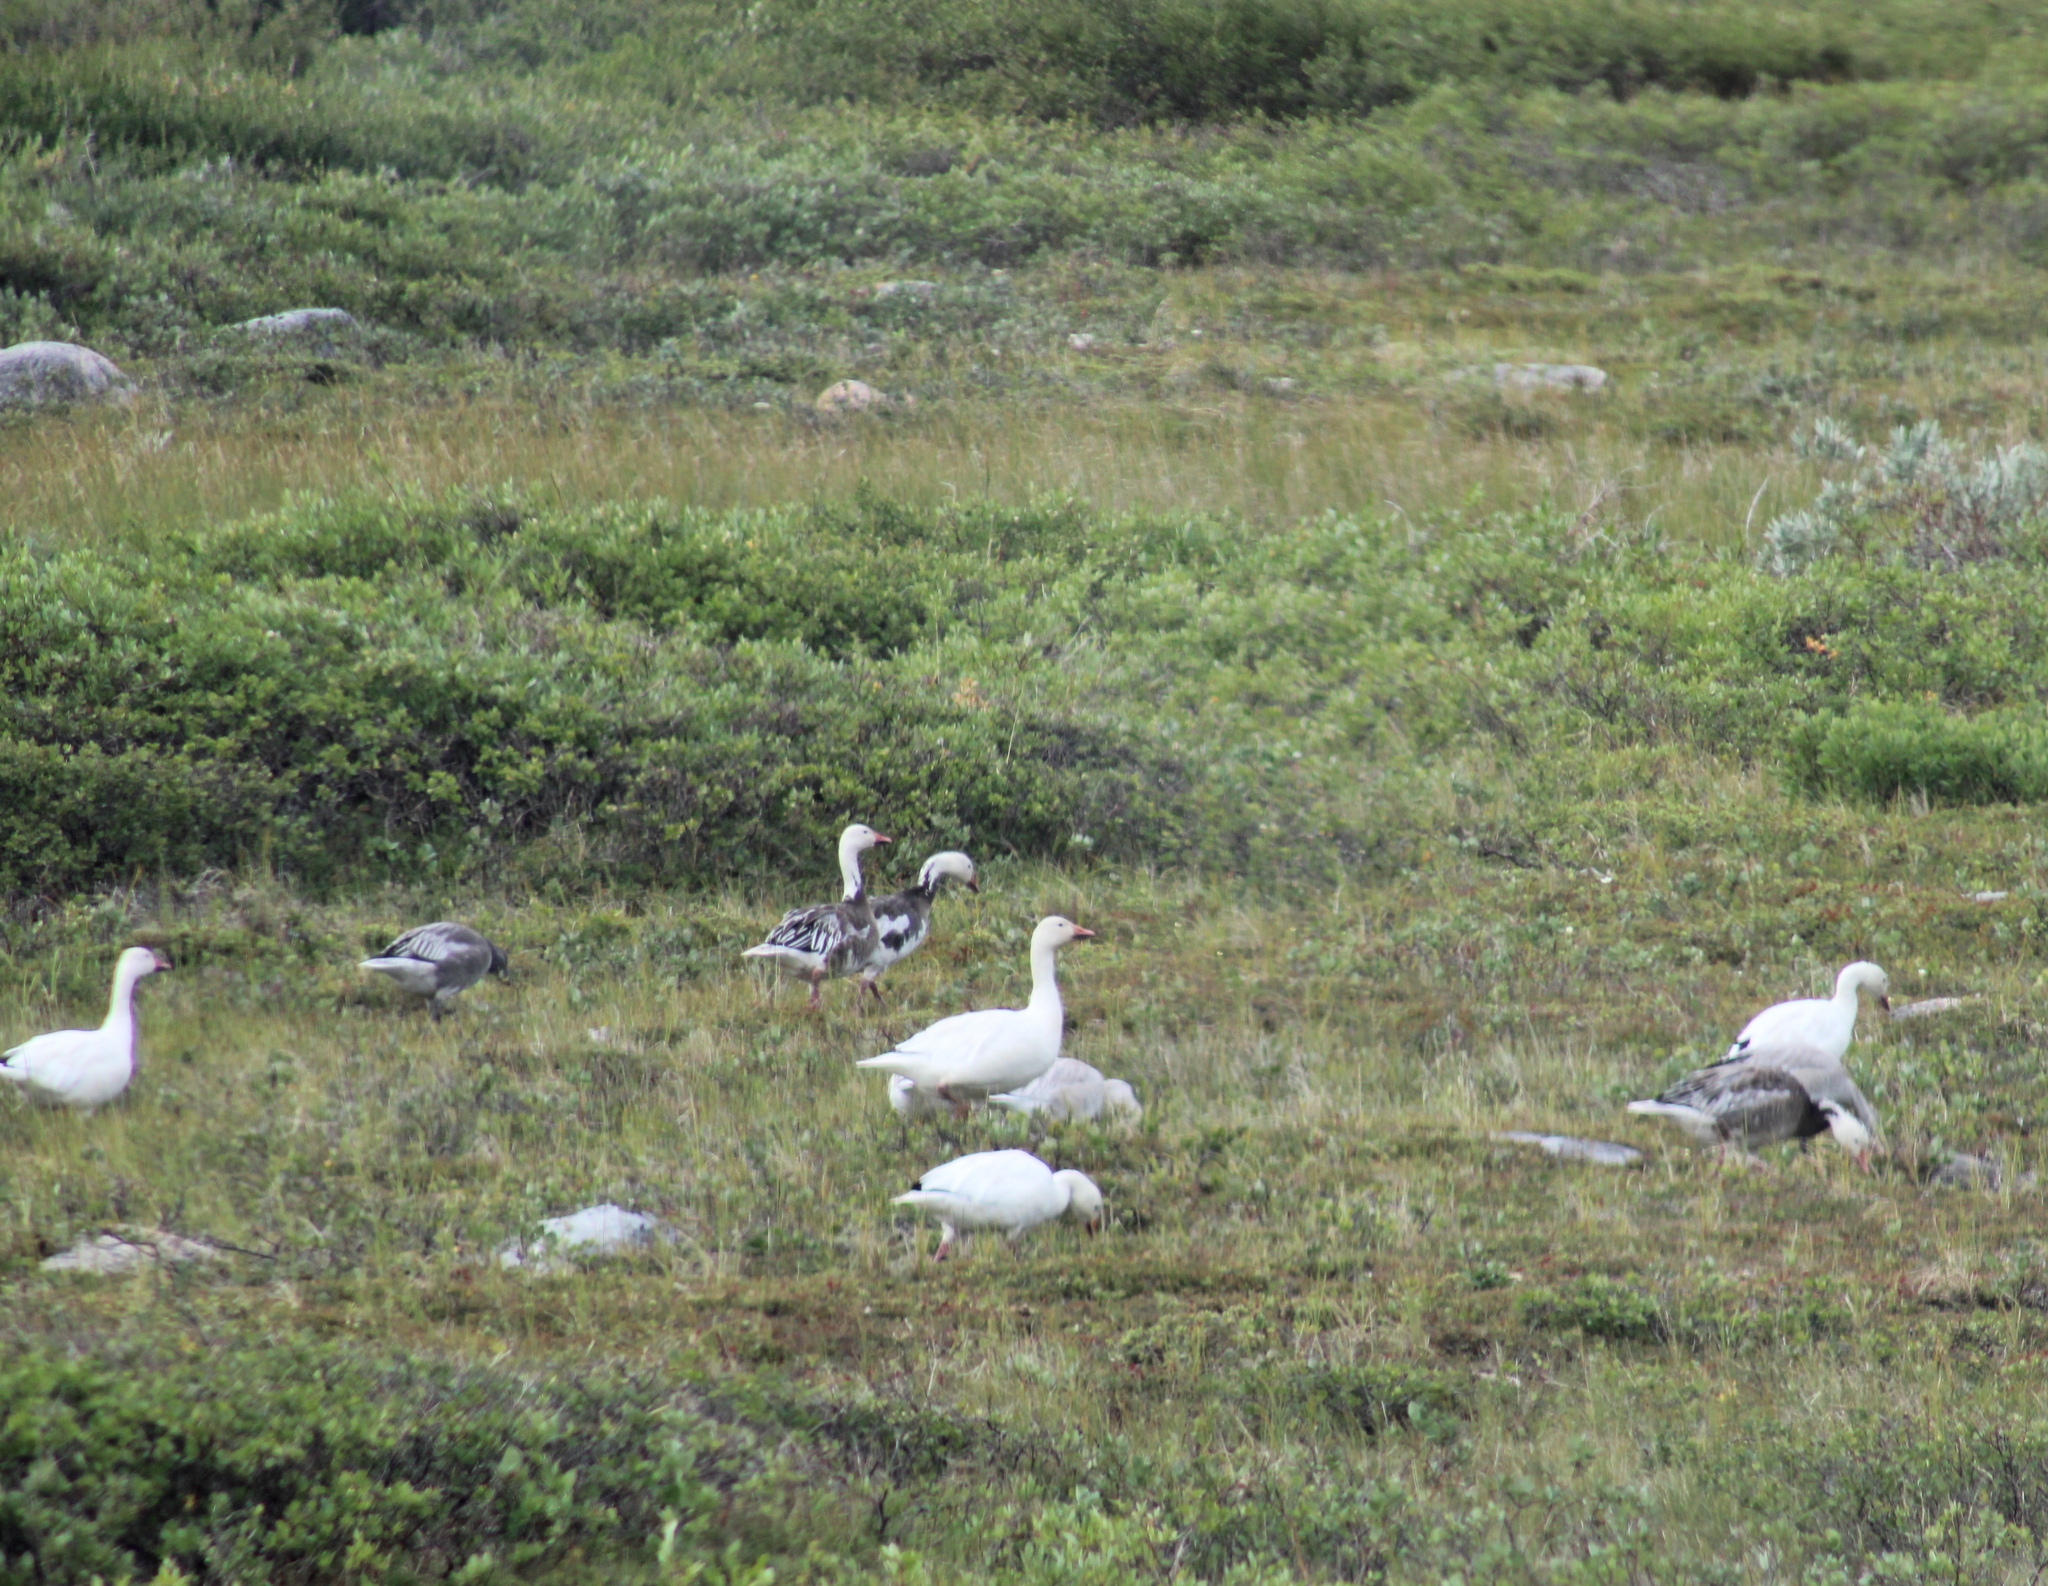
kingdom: Animalia
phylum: Chordata
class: Aves
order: Anseriformes
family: Anatidae
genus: Anser
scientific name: Anser caerulescens
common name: Snow goose
